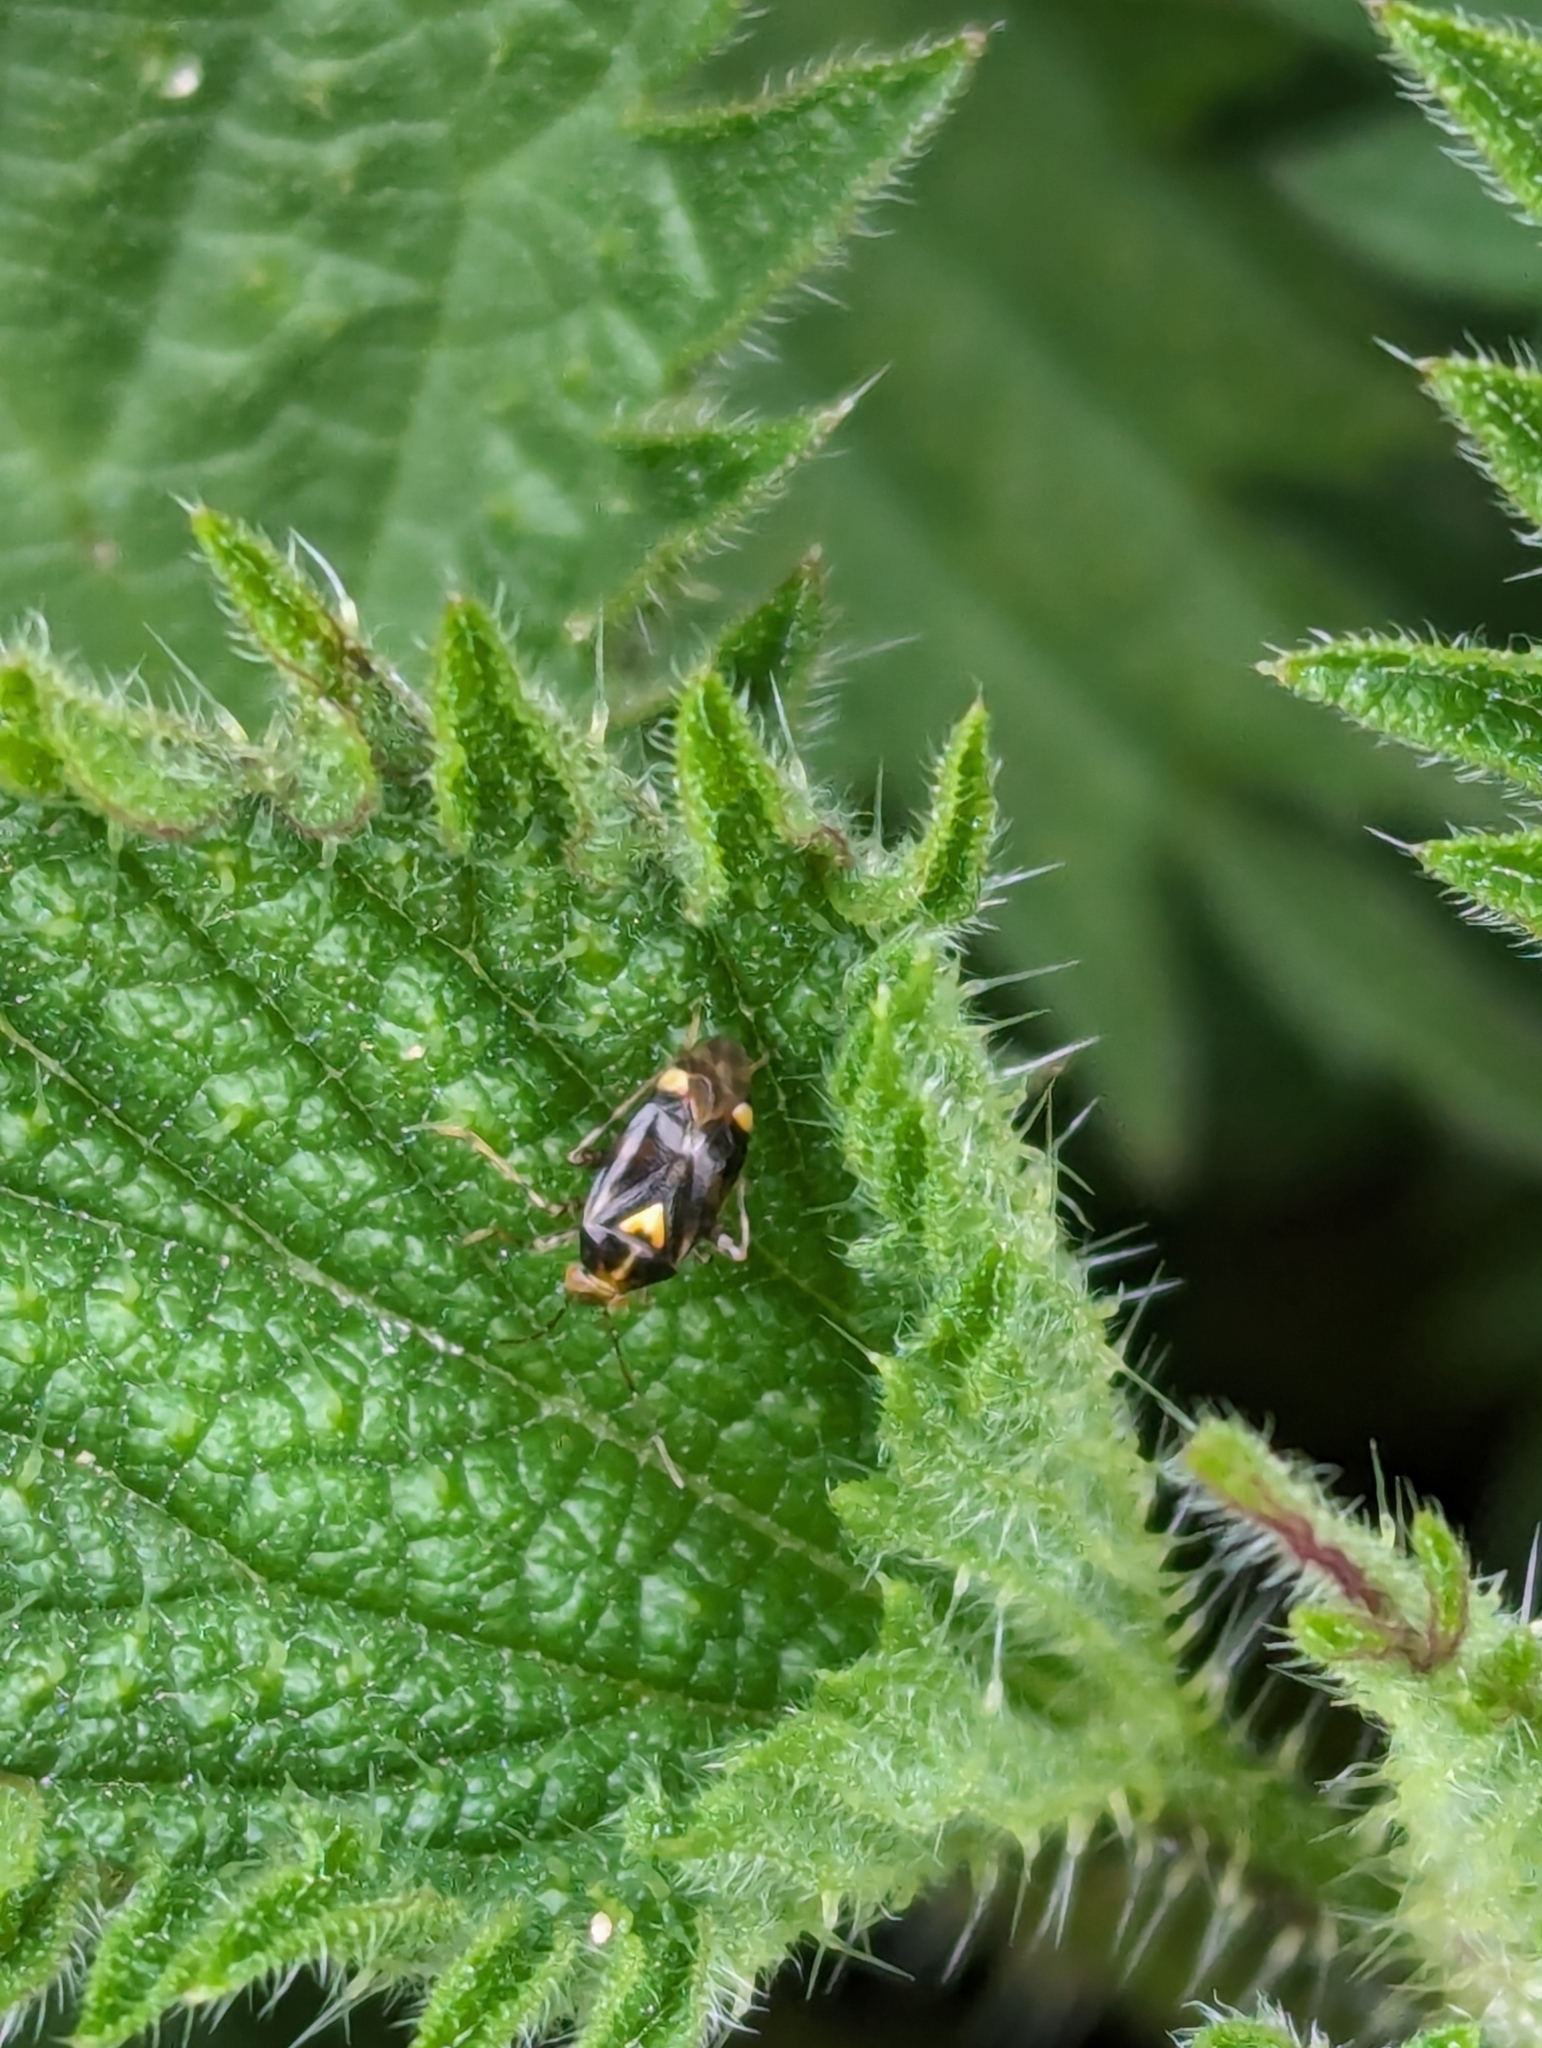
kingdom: Animalia
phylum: Arthropoda
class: Insecta
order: Hemiptera
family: Miridae
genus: Liocoris
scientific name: Liocoris tripustulatus
